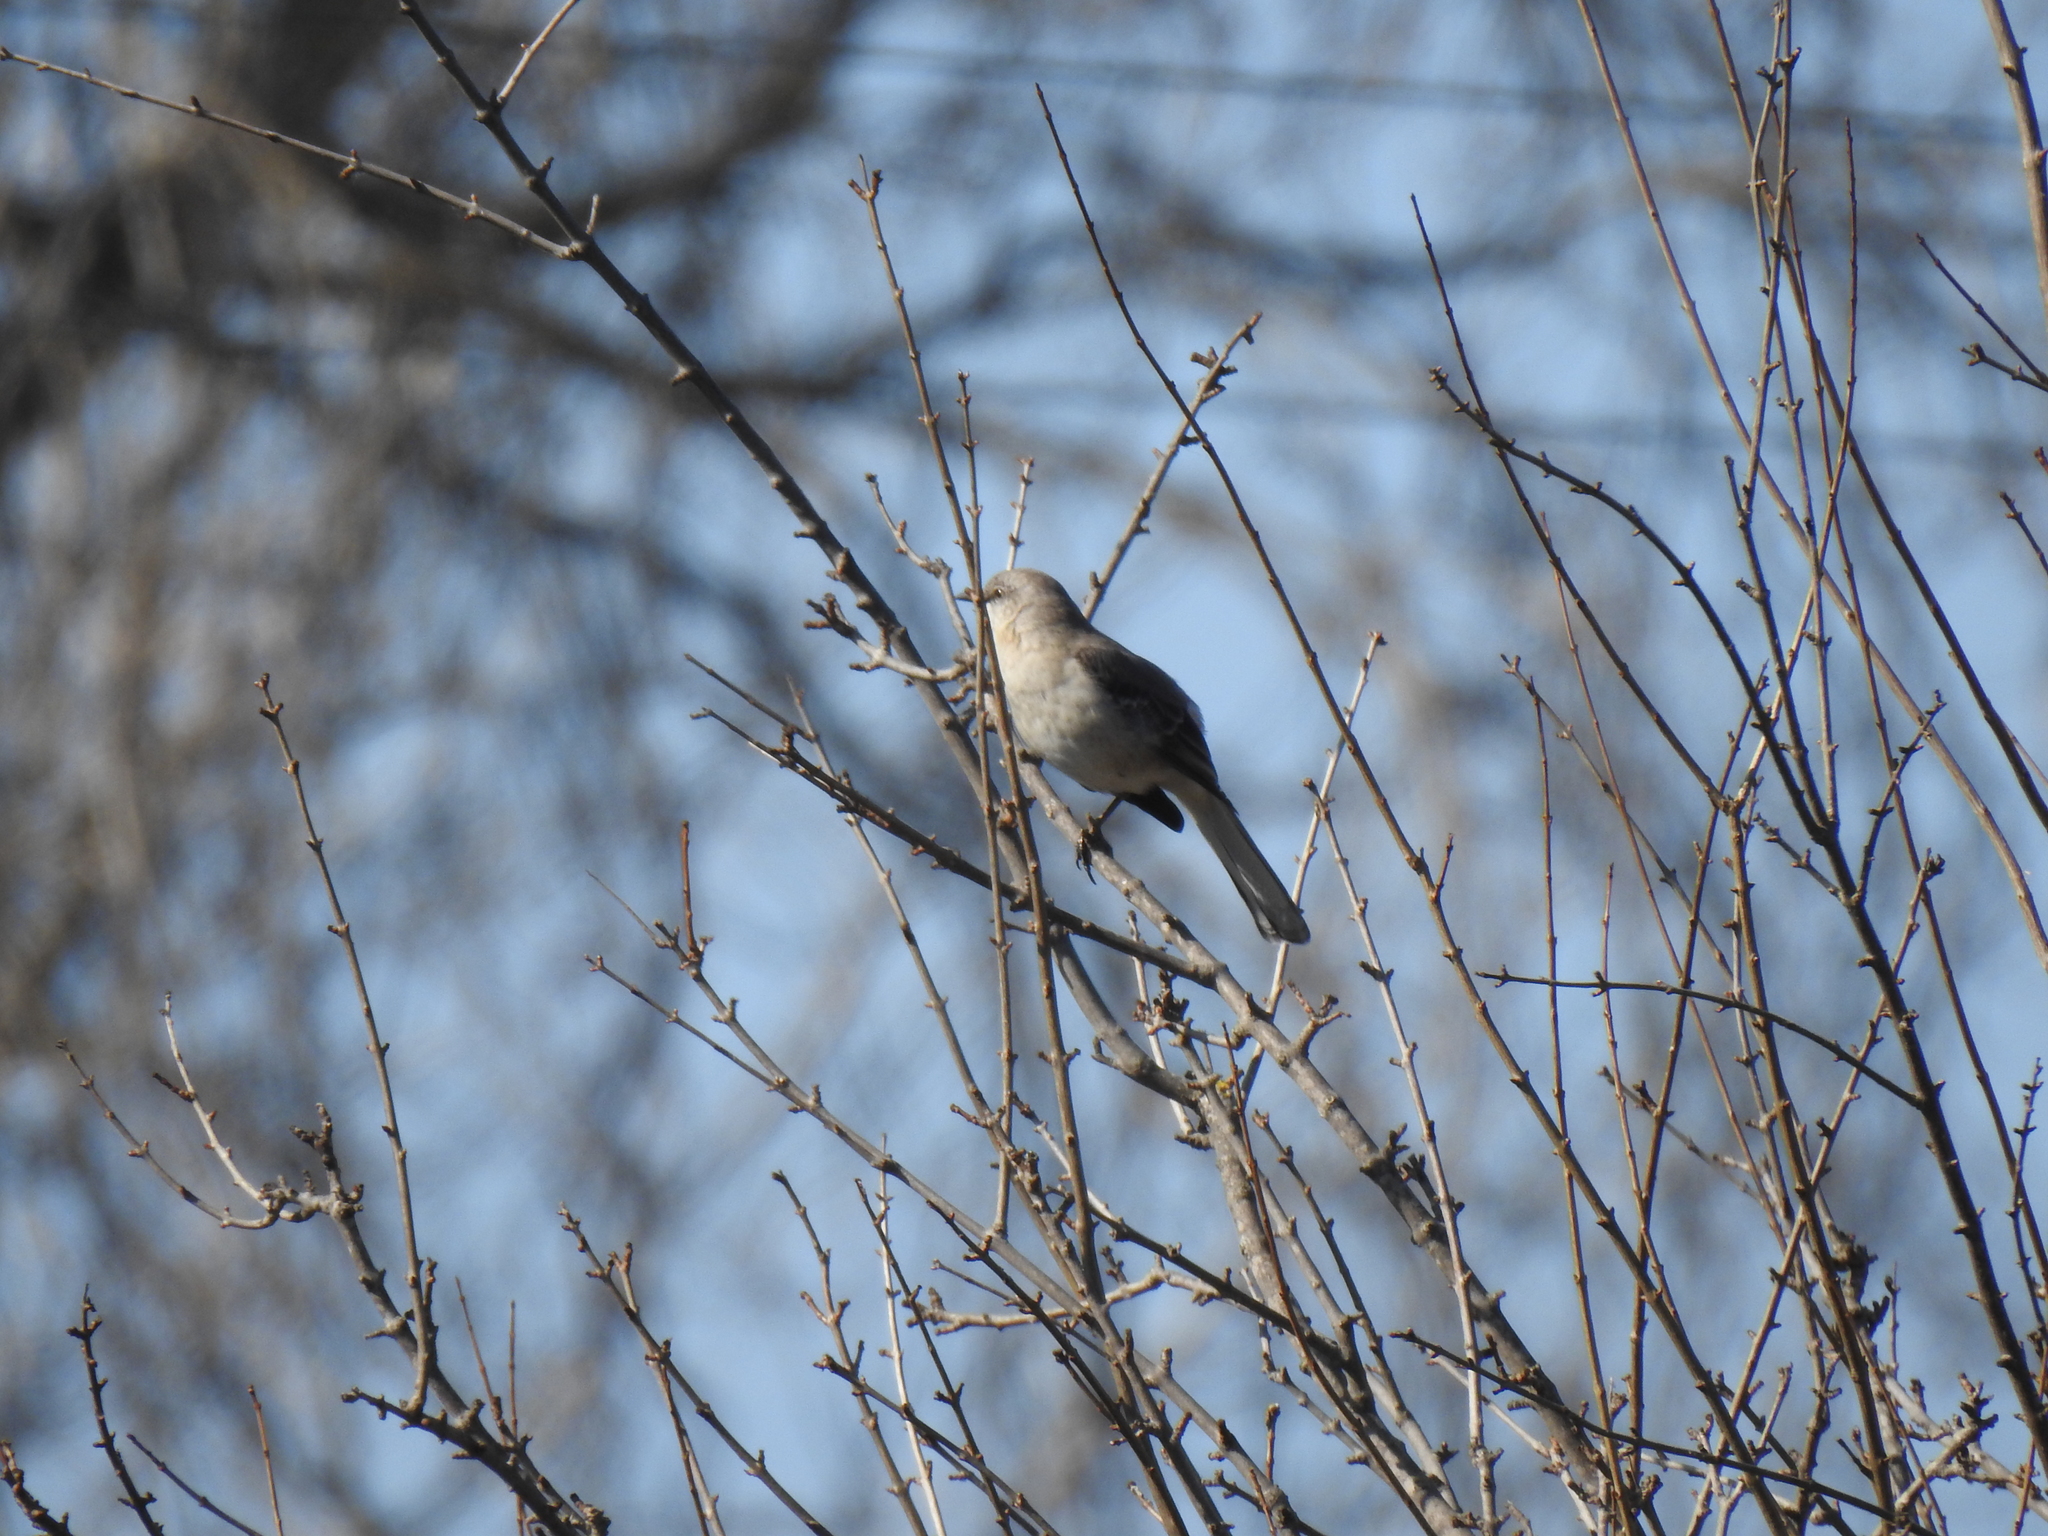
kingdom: Animalia
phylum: Chordata
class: Aves
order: Passeriformes
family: Mimidae
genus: Mimus
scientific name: Mimus polyglottos
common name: Northern mockingbird
